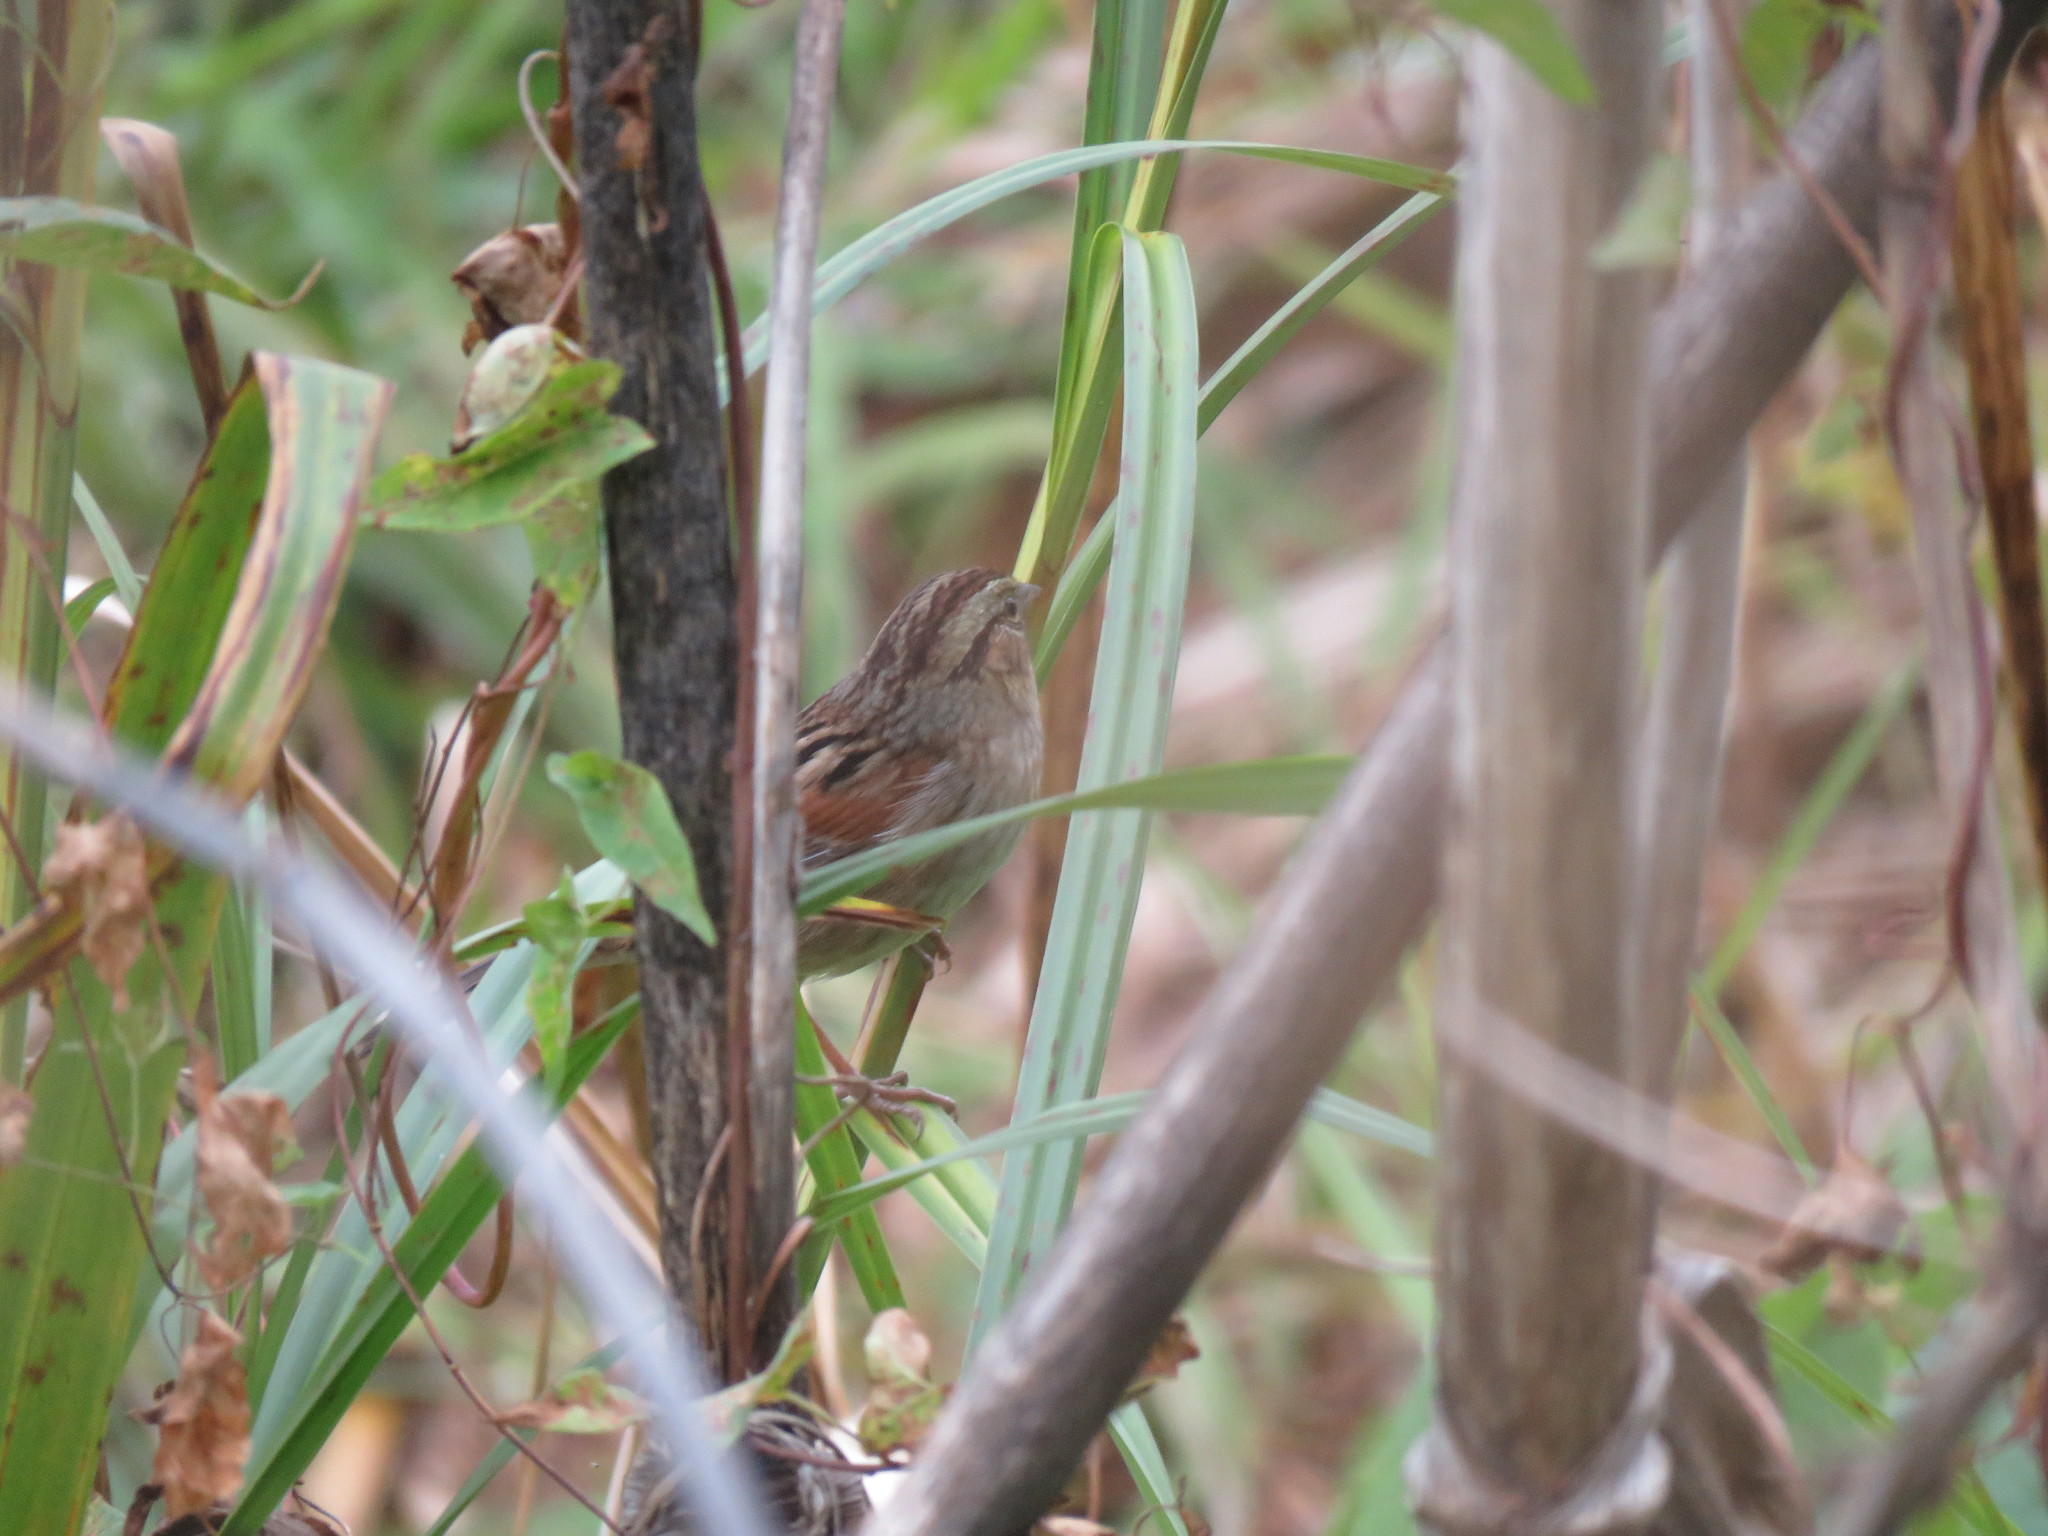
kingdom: Animalia
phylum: Chordata
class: Aves
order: Passeriformes
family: Passerellidae
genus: Melospiza
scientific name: Melospiza georgiana
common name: Swamp sparrow
